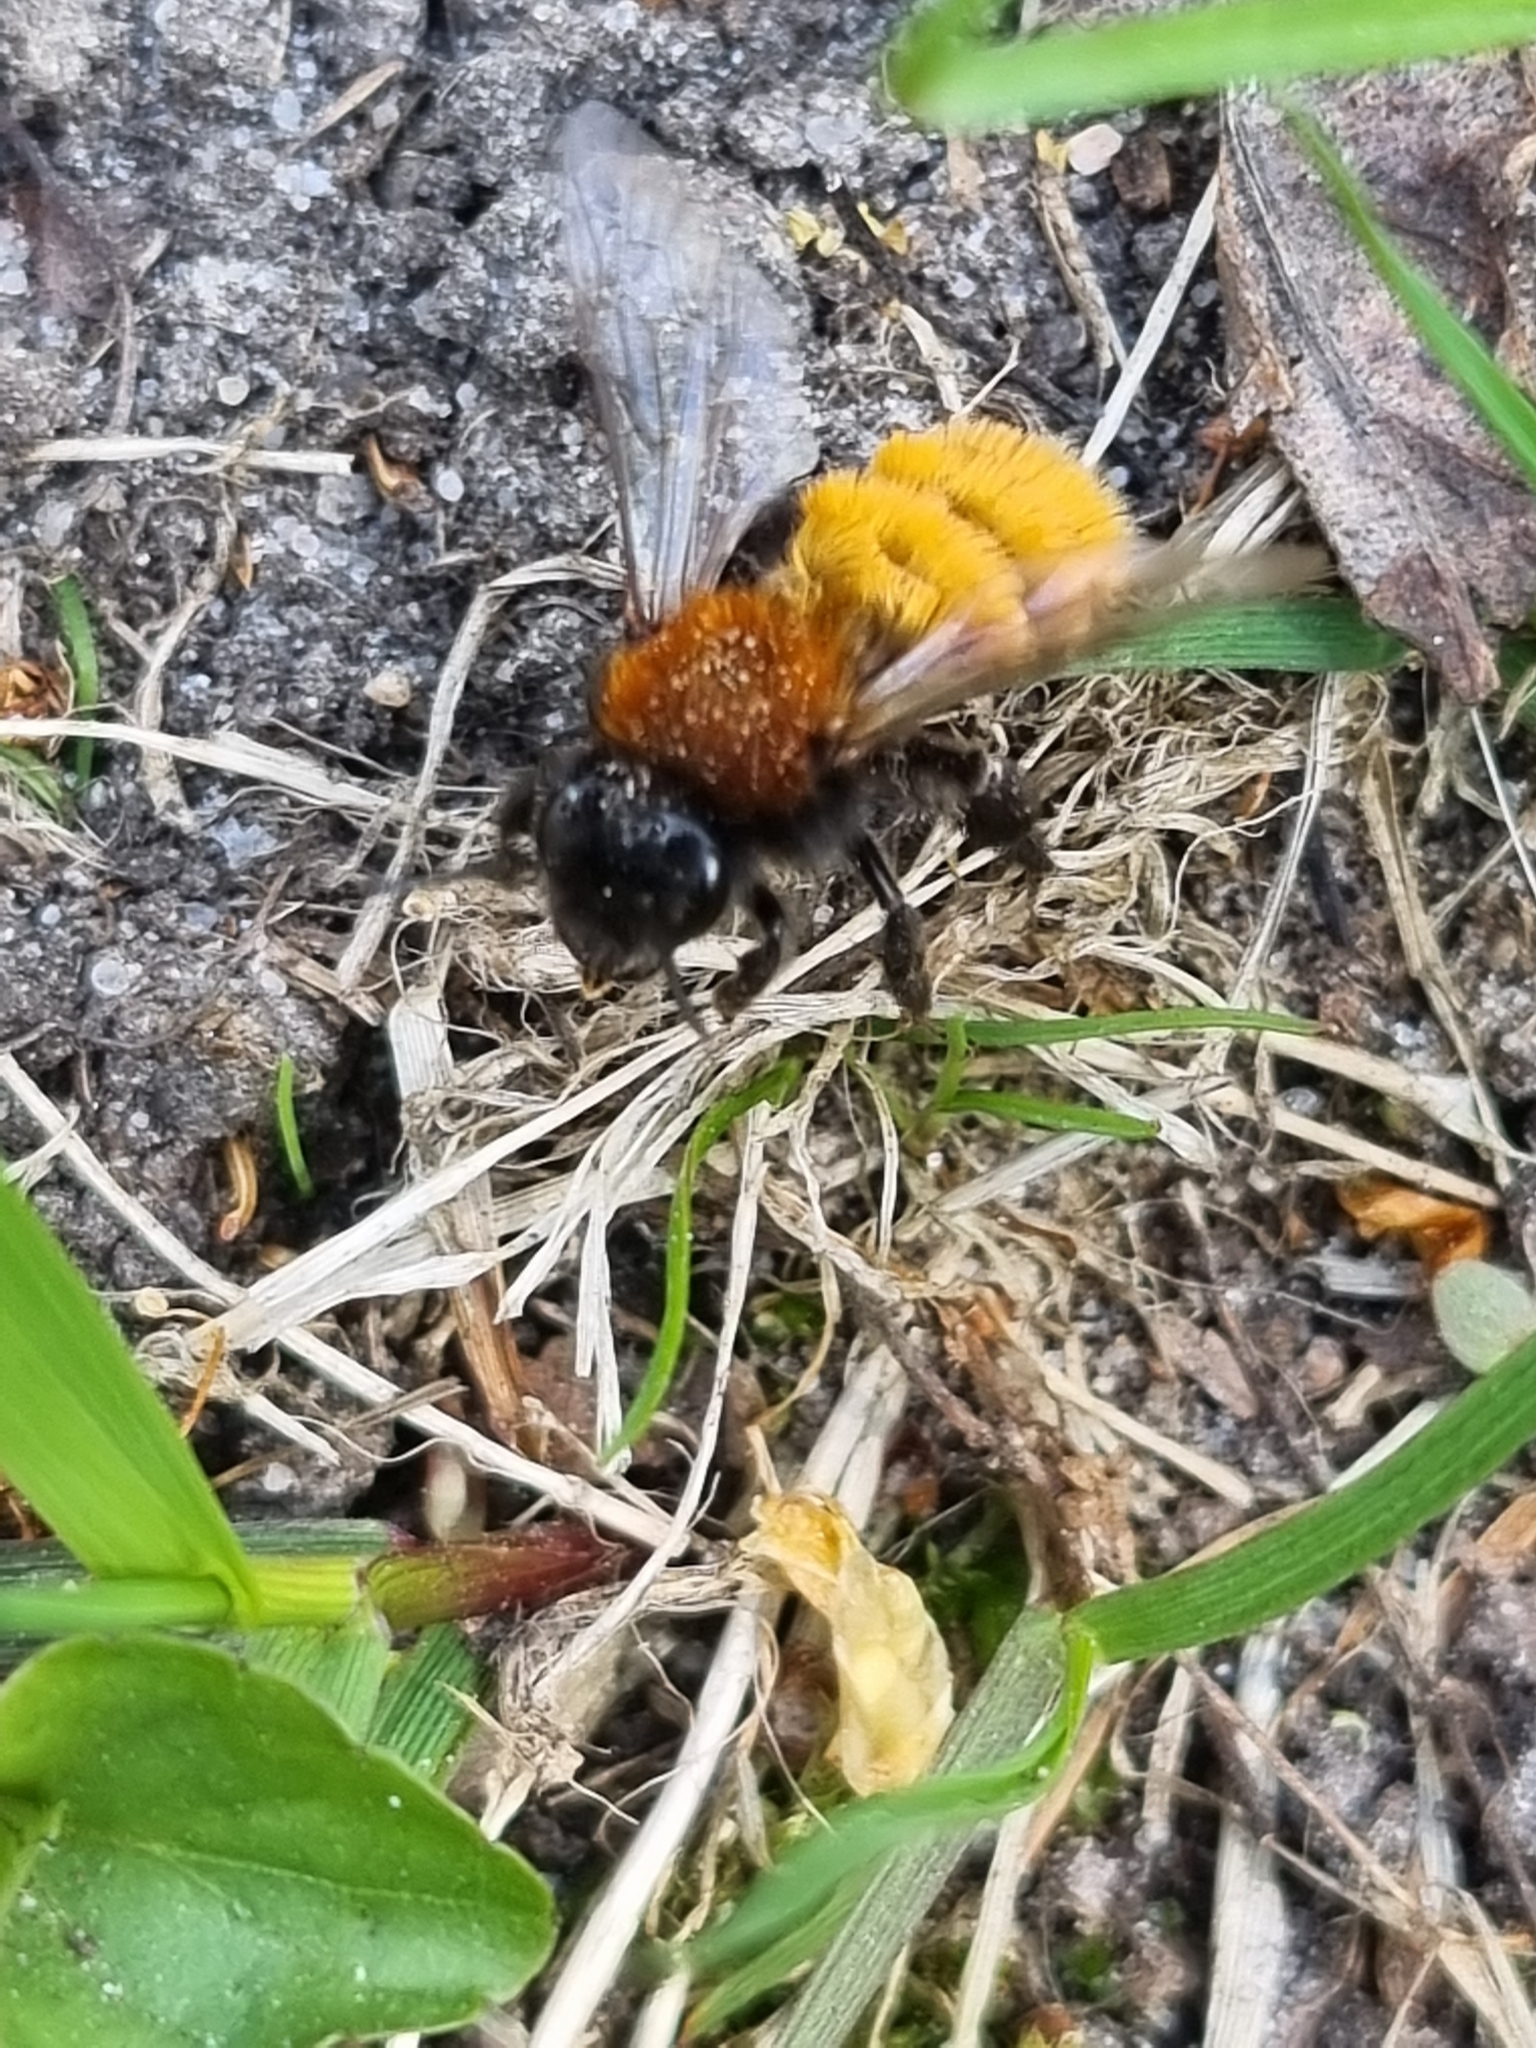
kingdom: Animalia
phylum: Arthropoda
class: Insecta
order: Hymenoptera
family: Andrenidae
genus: Andrena
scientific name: Andrena fulva
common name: Tawny mining bee
